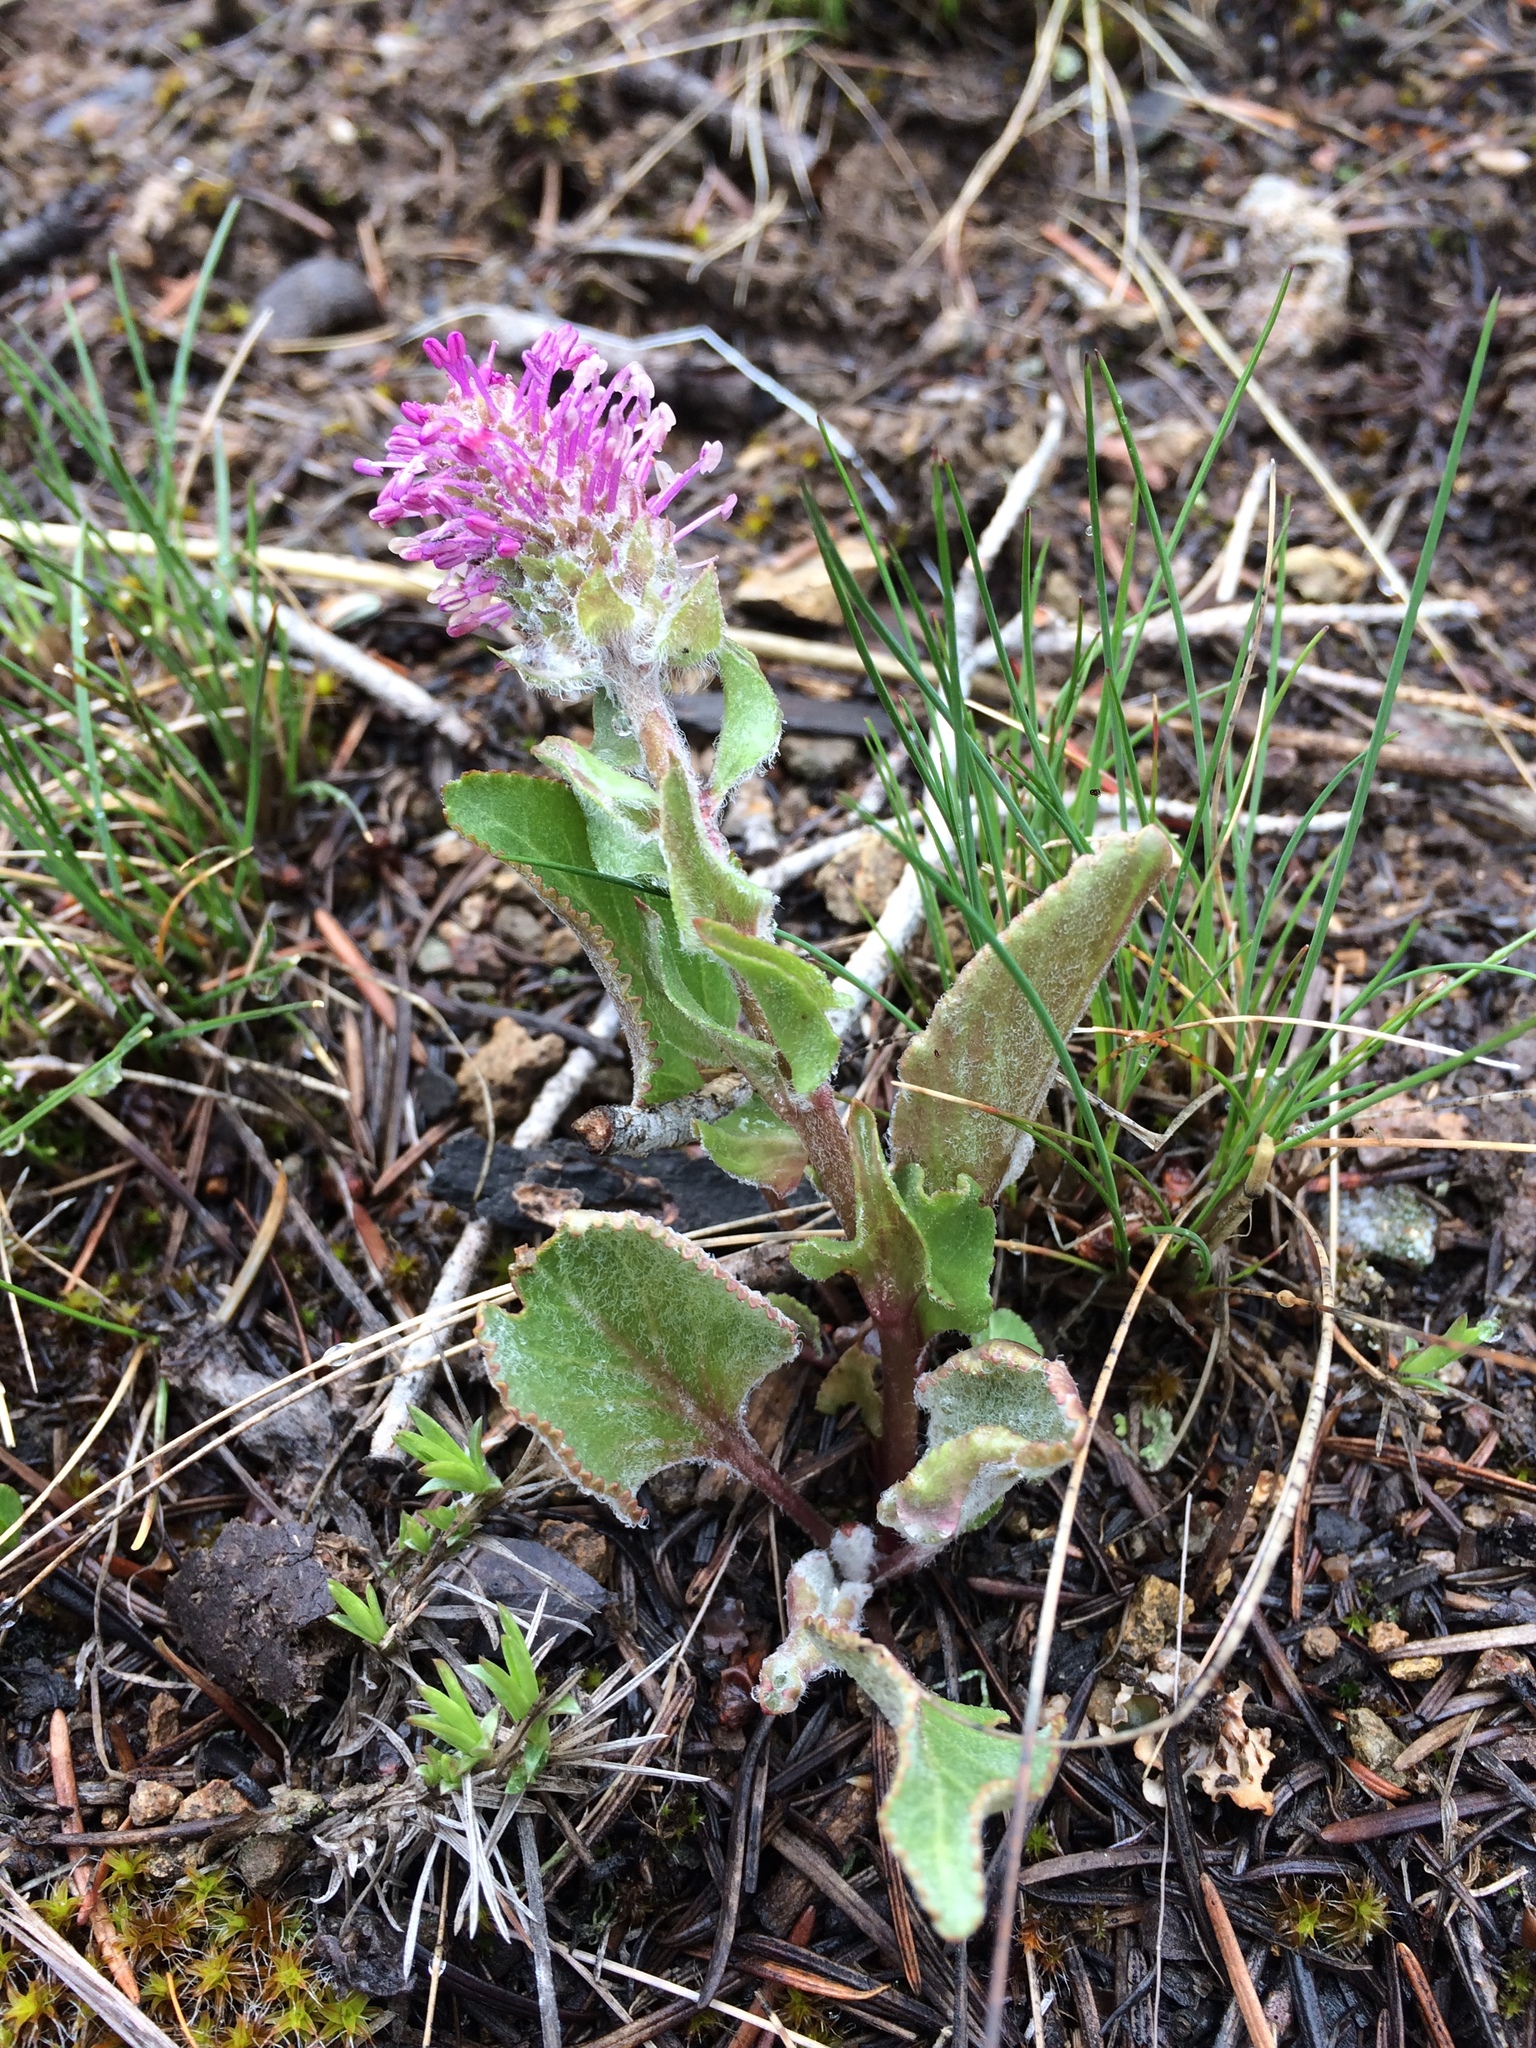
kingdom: Plantae
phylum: Tracheophyta
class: Magnoliopsida
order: Lamiales
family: Plantaginaceae
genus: Synthyris
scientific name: Synthyris wyomingensis
